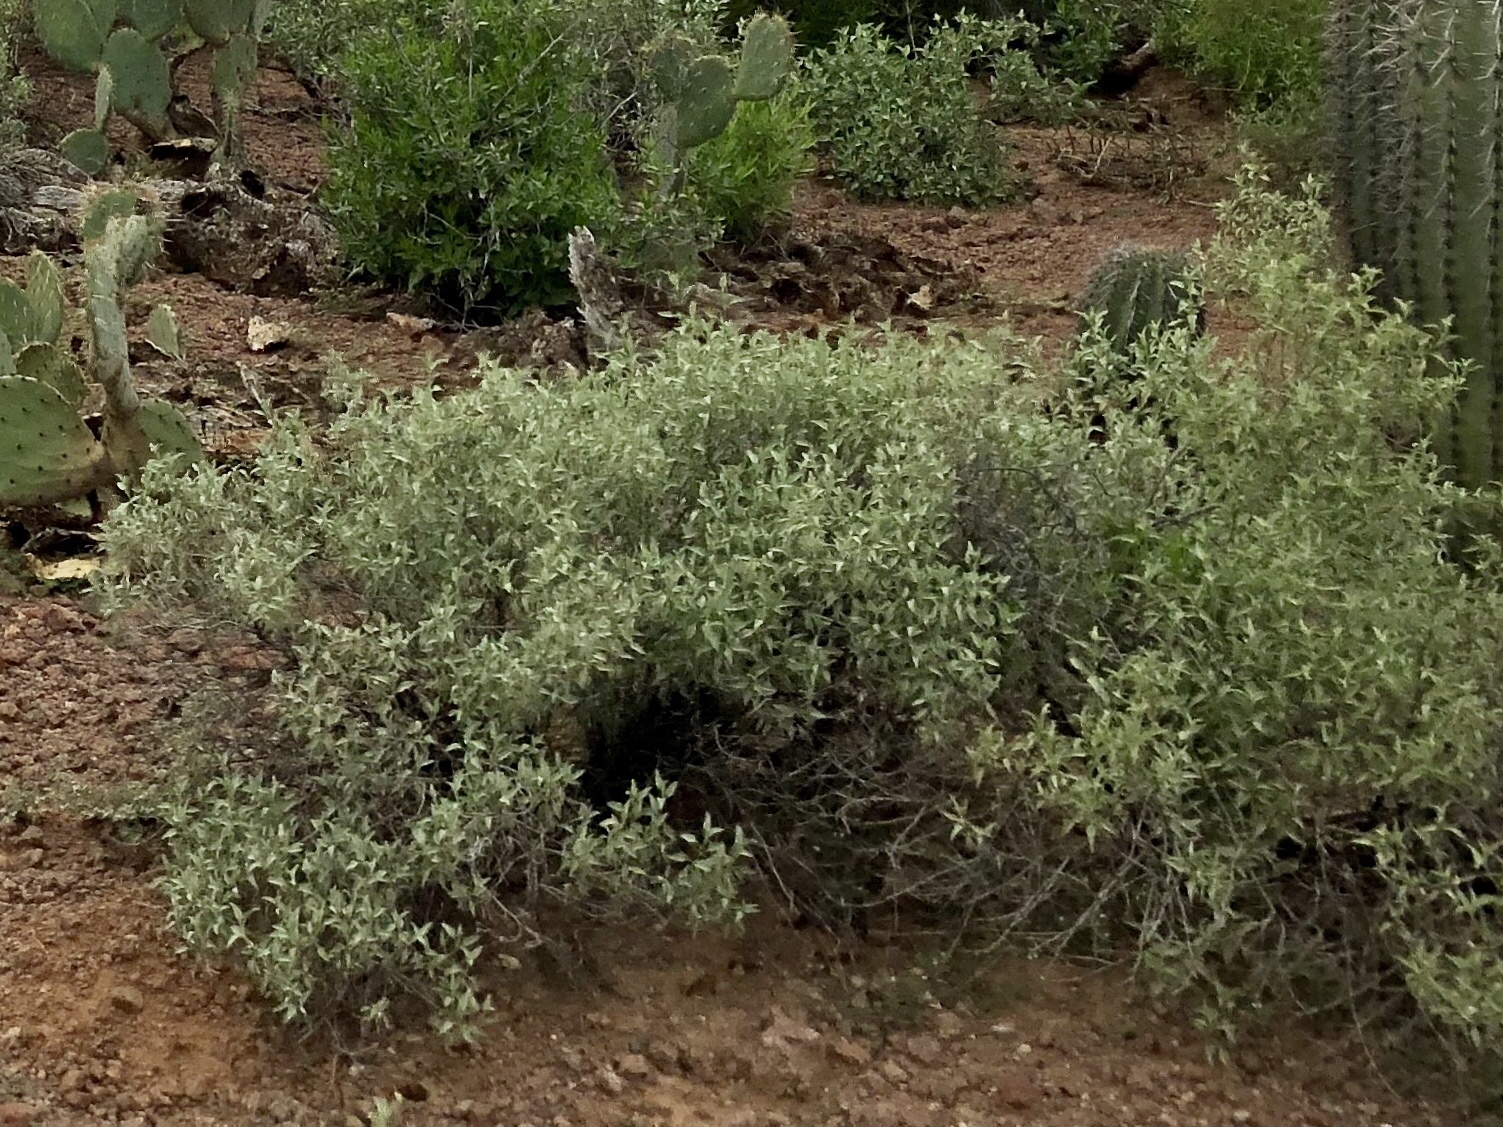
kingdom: Plantae
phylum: Tracheophyta
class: Magnoliopsida
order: Asterales
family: Asteraceae
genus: Ambrosia
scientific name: Ambrosia deltoidea
